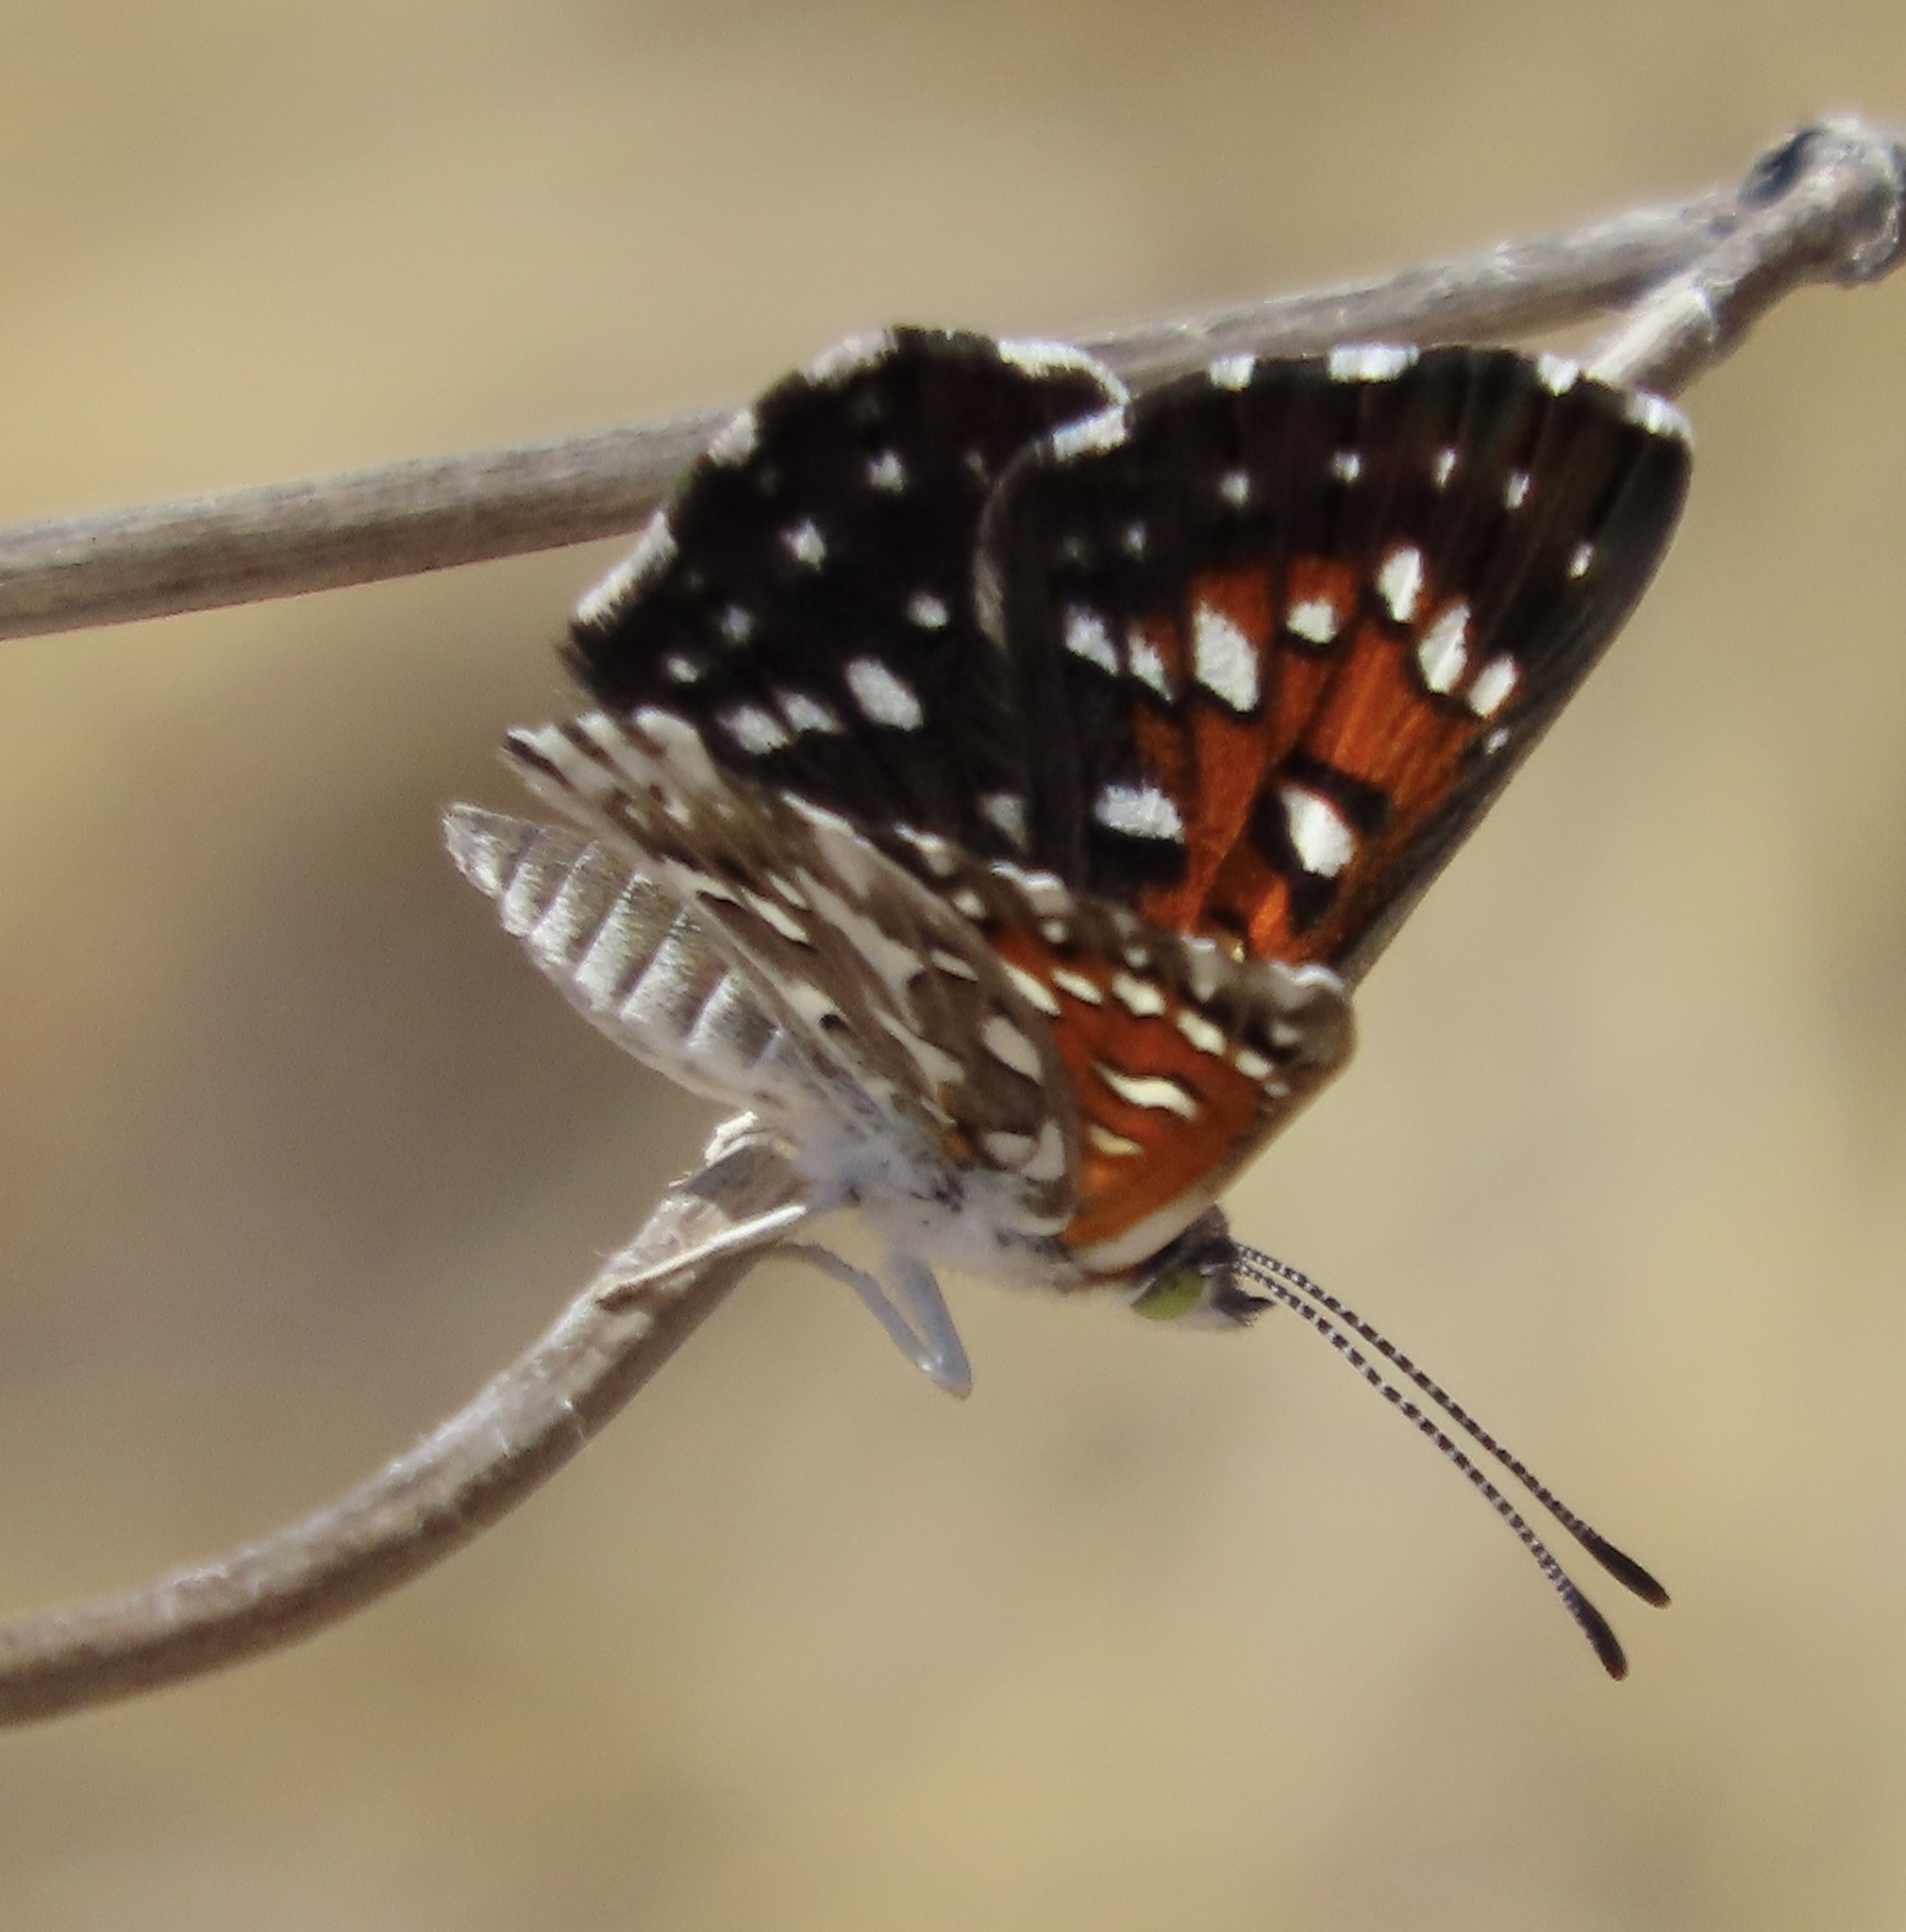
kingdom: Animalia
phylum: Arthropoda
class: Insecta
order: Lepidoptera
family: Riodinidae
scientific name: Riodinidae
